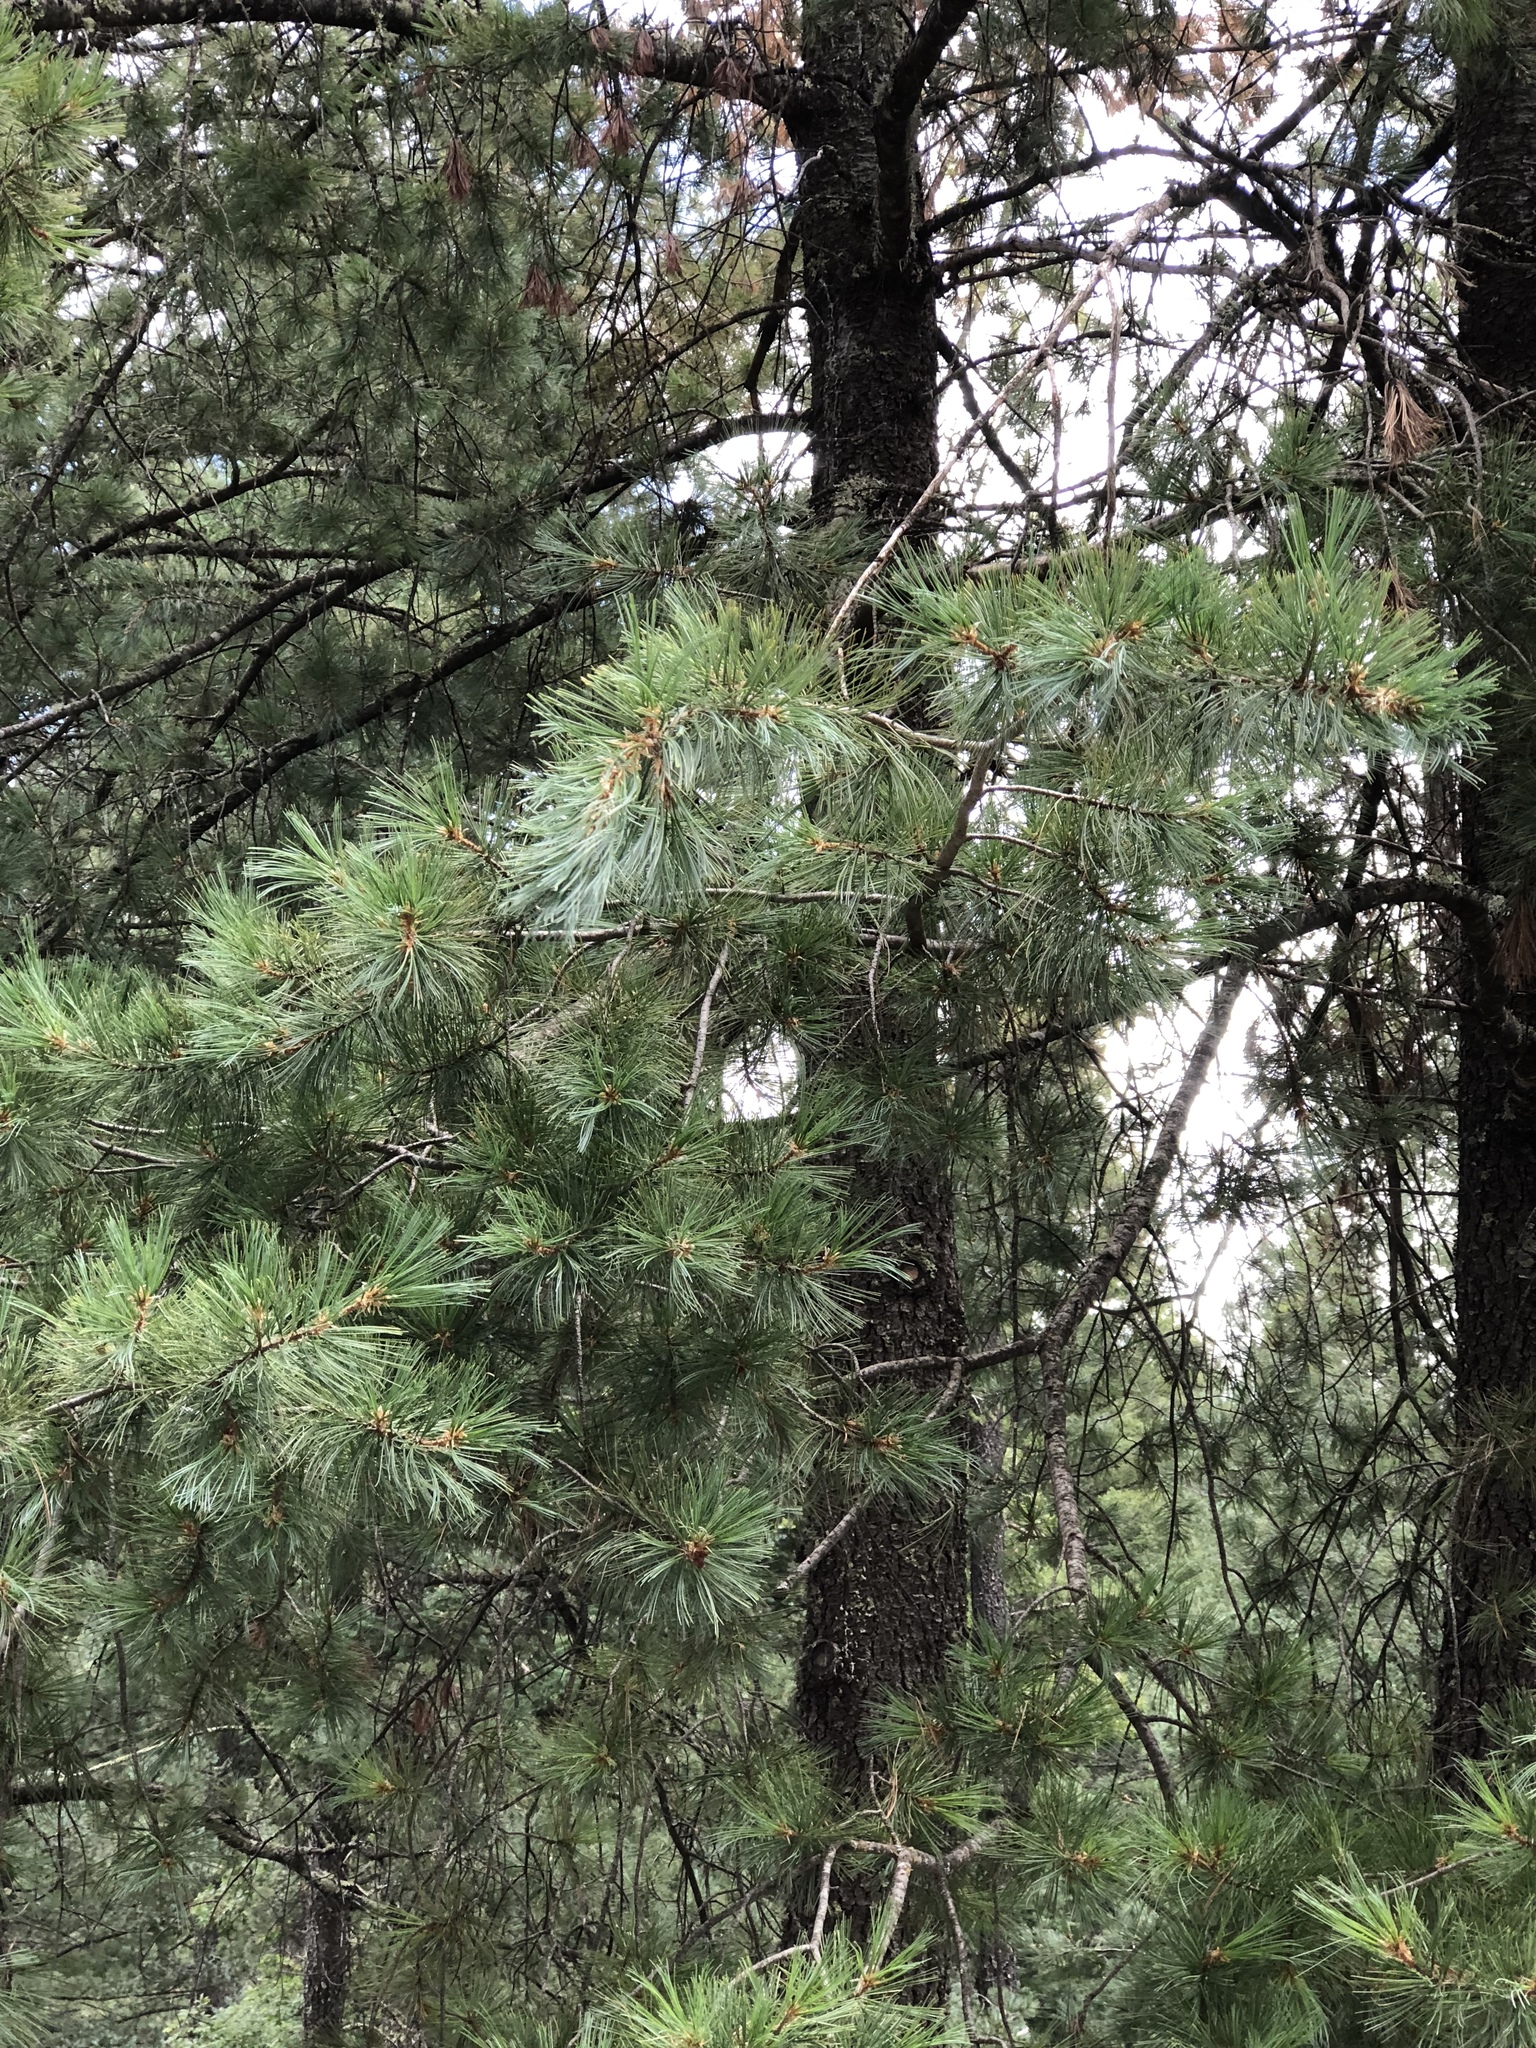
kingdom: Plantae
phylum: Tracheophyta
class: Pinopsida
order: Pinales
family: Pinaceae
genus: Pinus
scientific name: Pinus ponderosa
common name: Western yellow-pine
